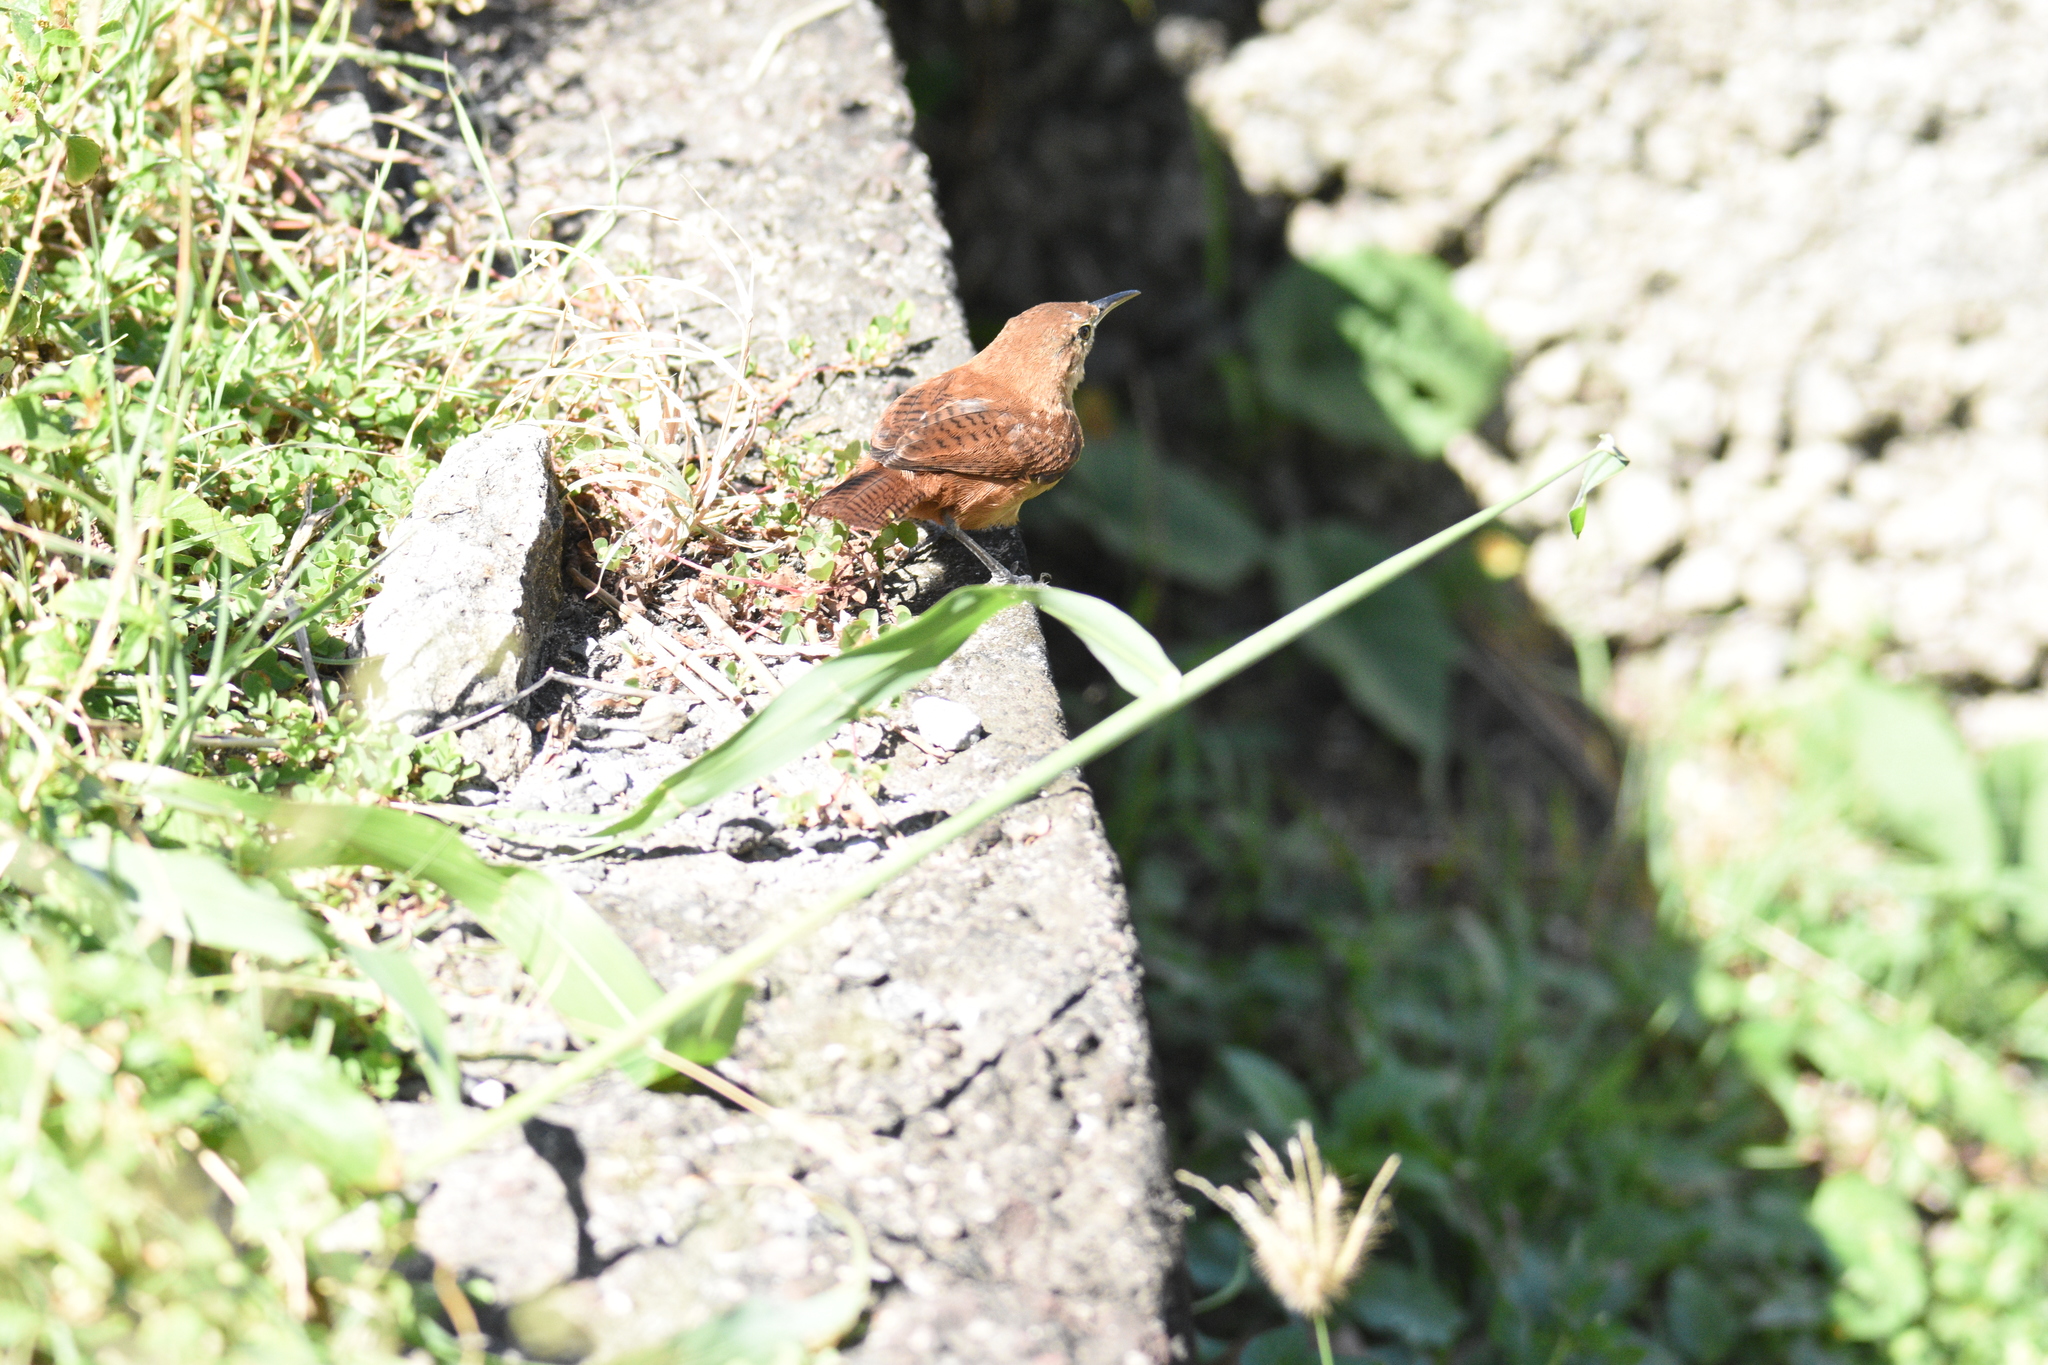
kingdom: Animalia
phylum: Chordata
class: Aves
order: Passeriformes
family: Troglodytidae
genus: Troglodytes
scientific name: Troglodytes aedon
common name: House wren
